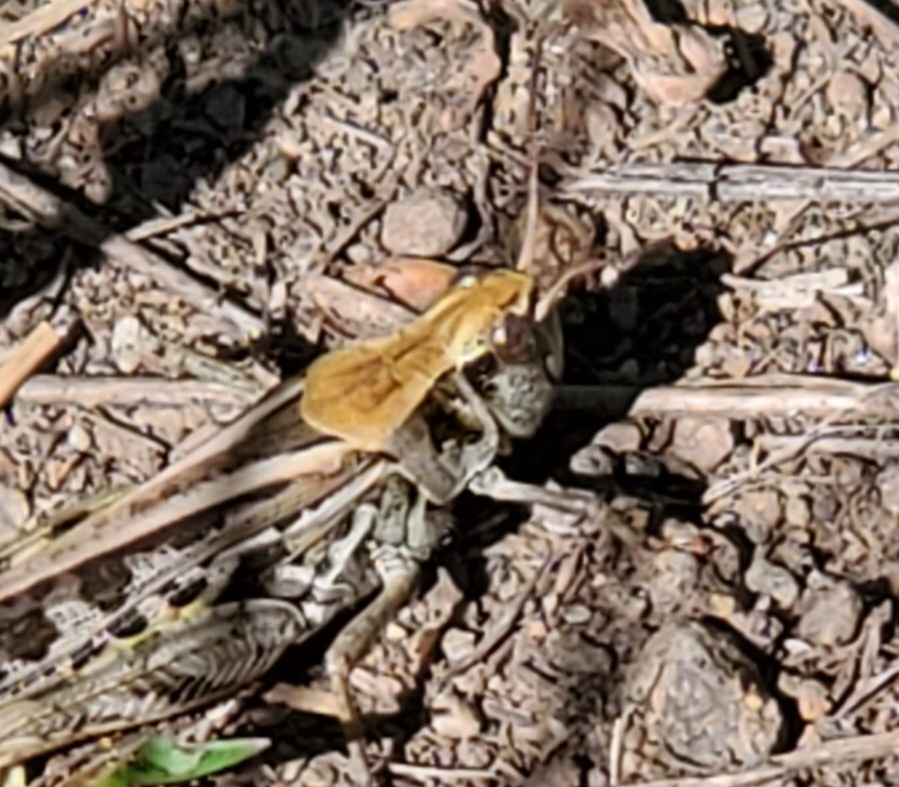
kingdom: Animalia
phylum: Arthropoda
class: Insecta
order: Orthoptera
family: Acrididae
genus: Camnula
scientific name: Camnula pellucida
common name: Clear-winged grasshopper
